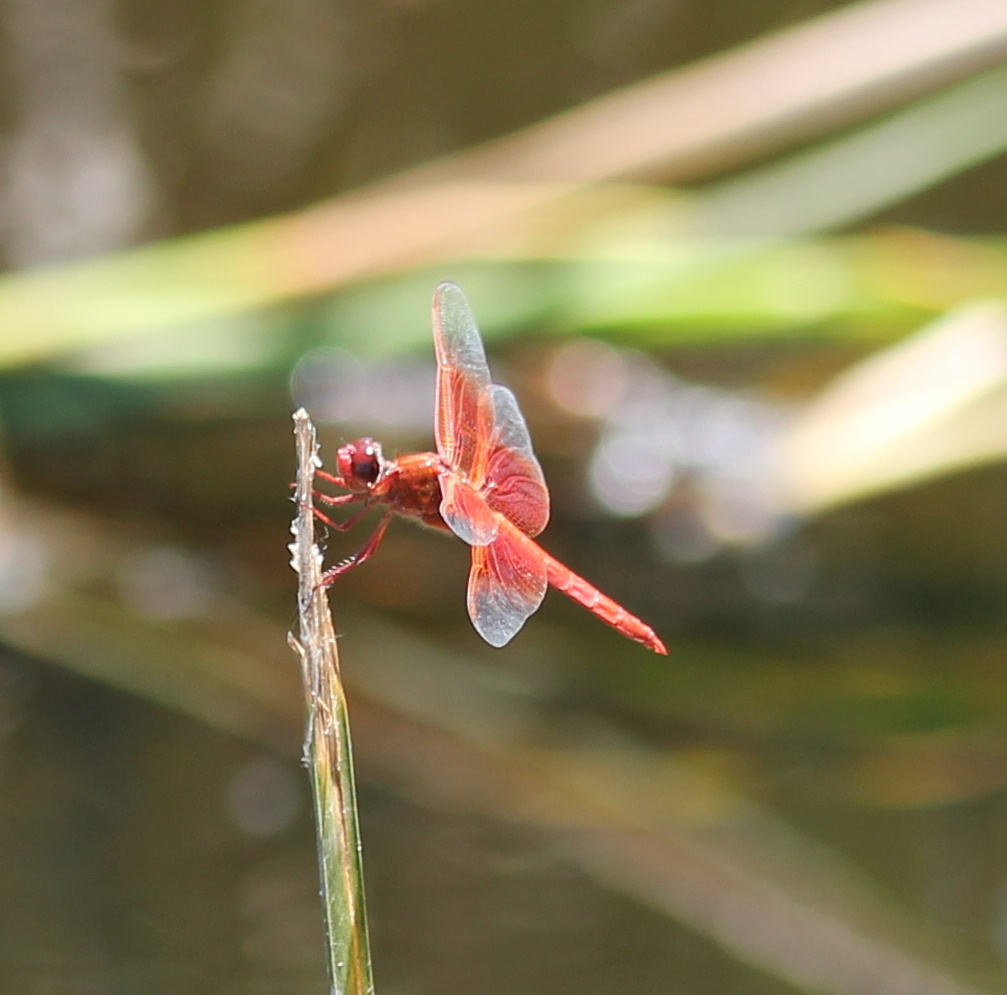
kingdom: Animalia
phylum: Arthropoda
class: Insecta
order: Odonata
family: Libellulidae
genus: Libellula
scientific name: Libellula saturata
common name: Flame skimmer
